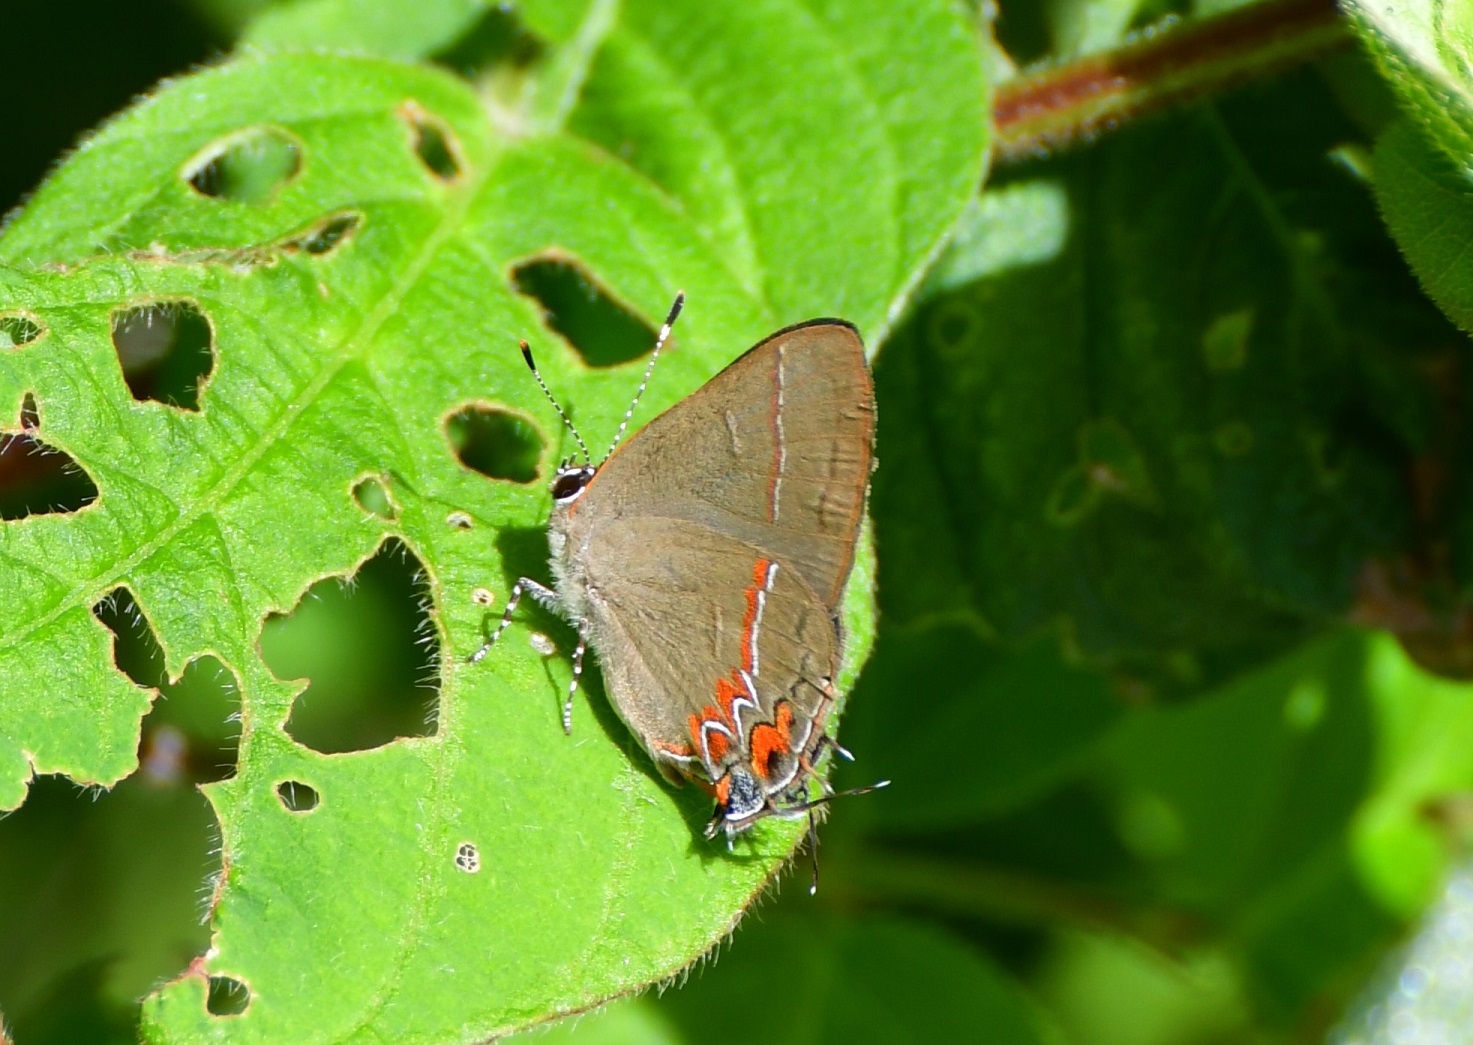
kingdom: Animalia
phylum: Arthropoda
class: Insecta
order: Lepidoptera
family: Lycaenidae
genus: Calycopis
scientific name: Calycopis isobeon
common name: Dusky-blue groundstreak
